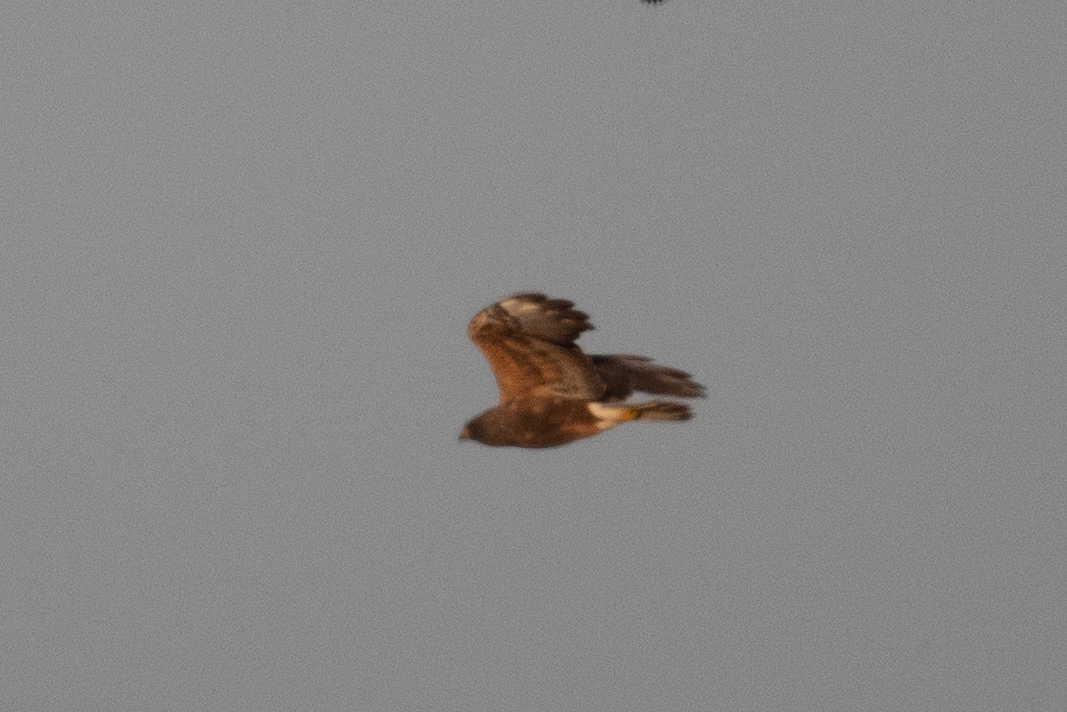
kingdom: Animalia
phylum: Chordata
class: Aves
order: Accipitriformes
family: Accipitridae
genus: Buteo
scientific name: Buteo swainsoni
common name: Swainson's hawk
